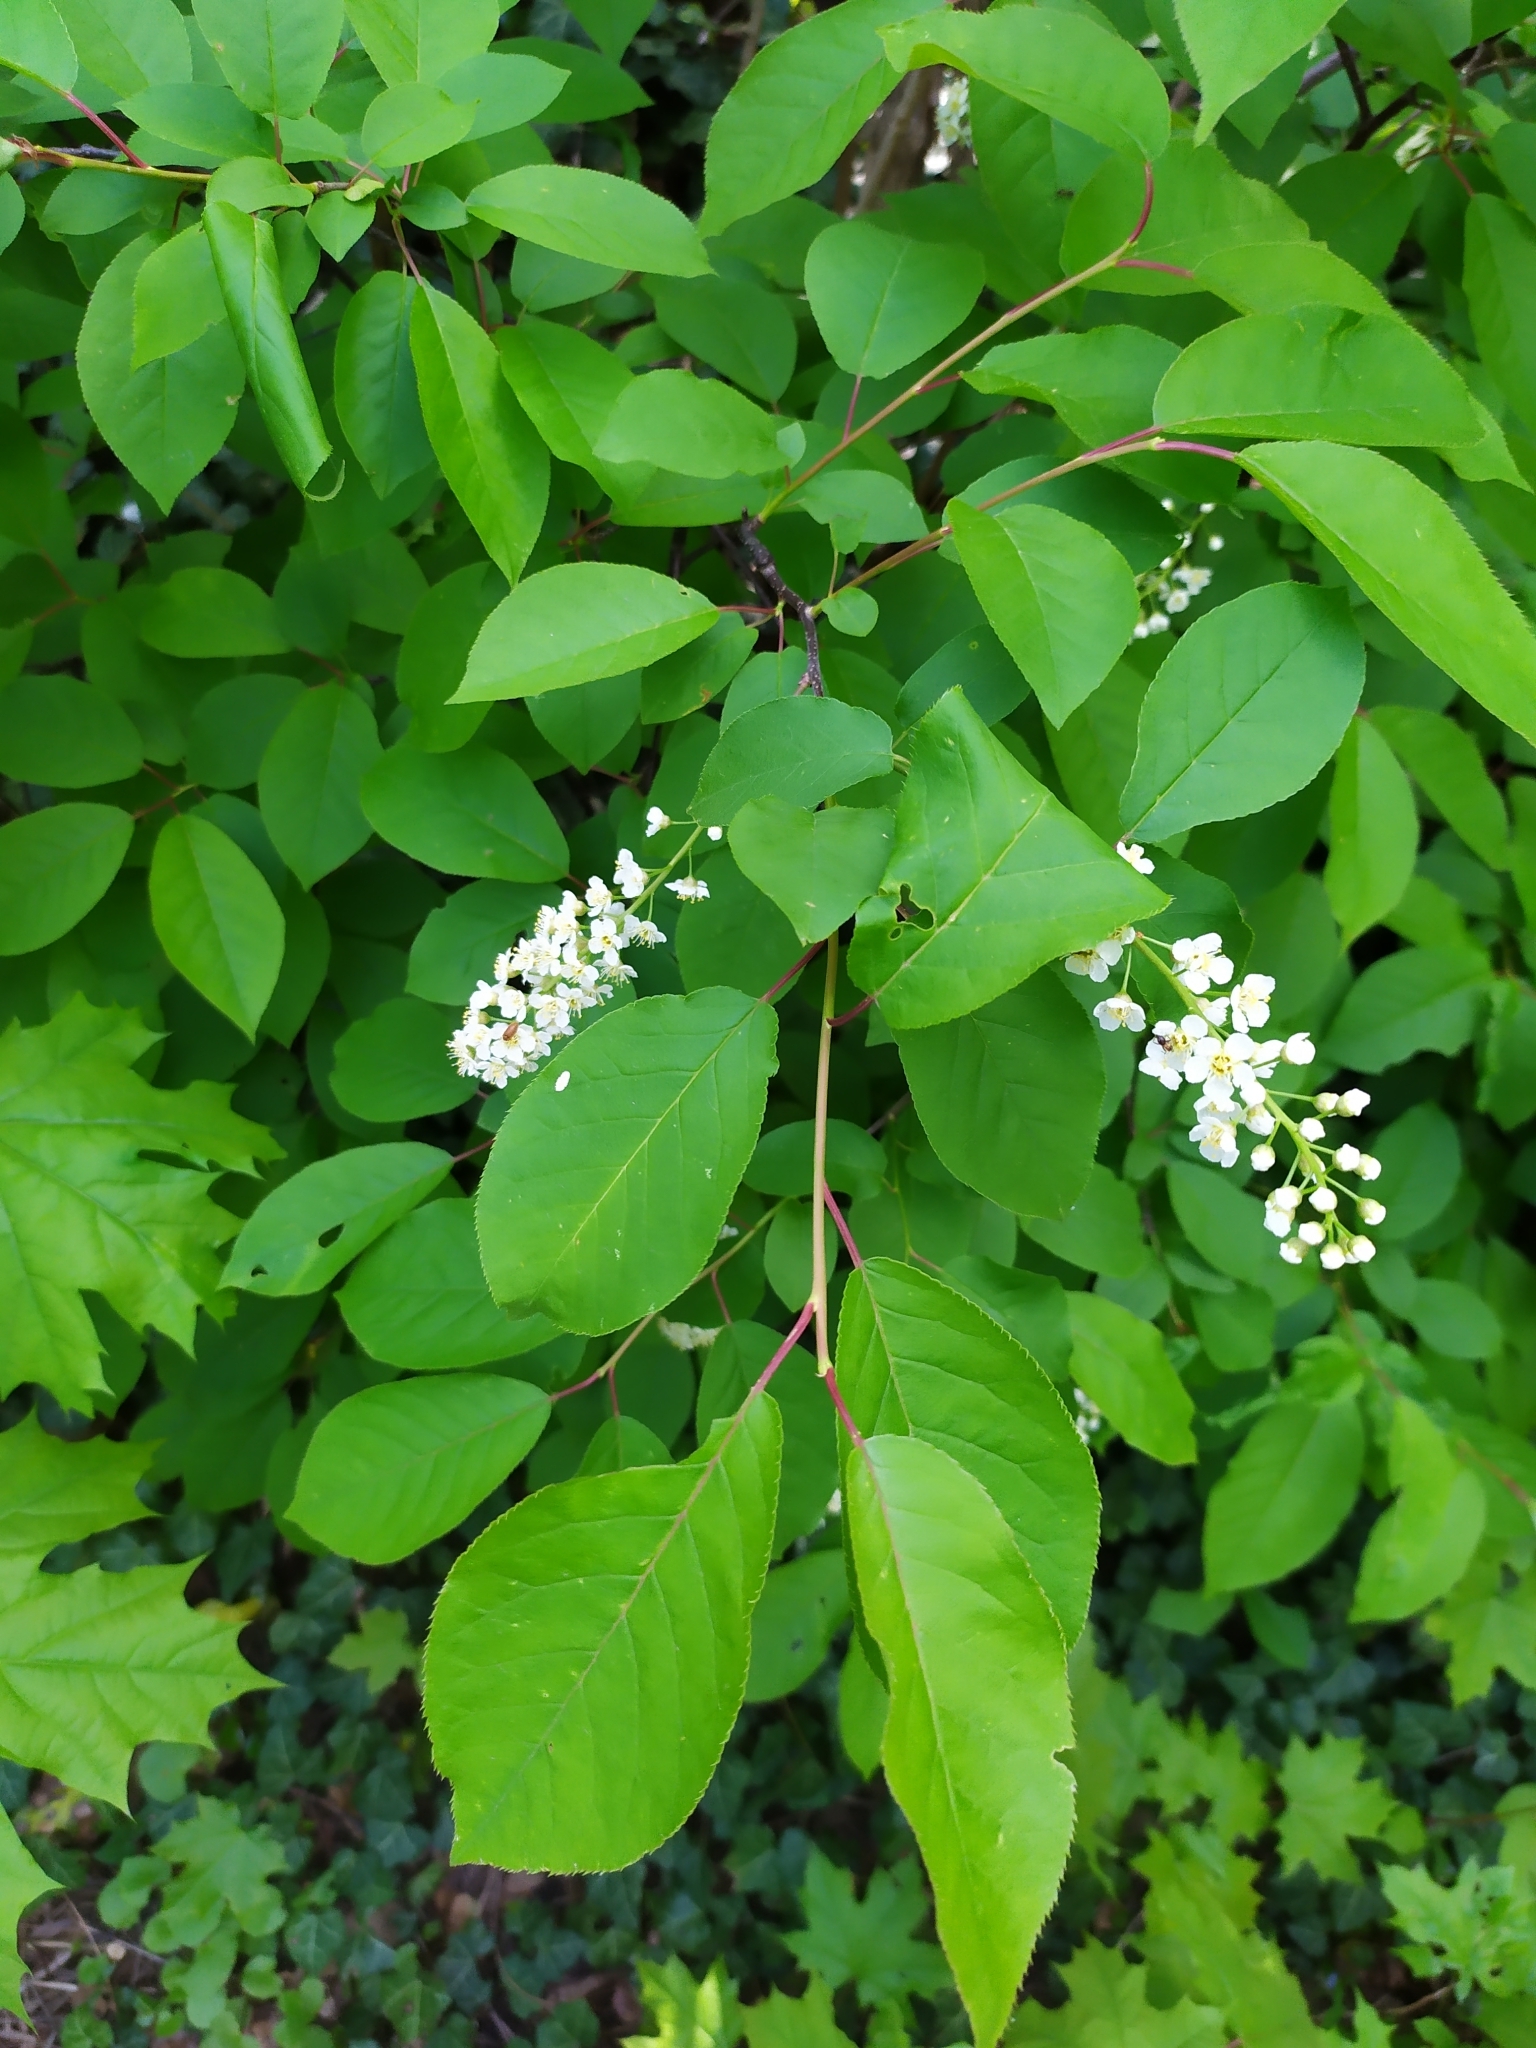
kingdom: Plantae
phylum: Tracheophyta
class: Magnoliopsida
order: Rosales
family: Rosaceae
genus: Prunus
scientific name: Prunus padus
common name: Bird cherry
